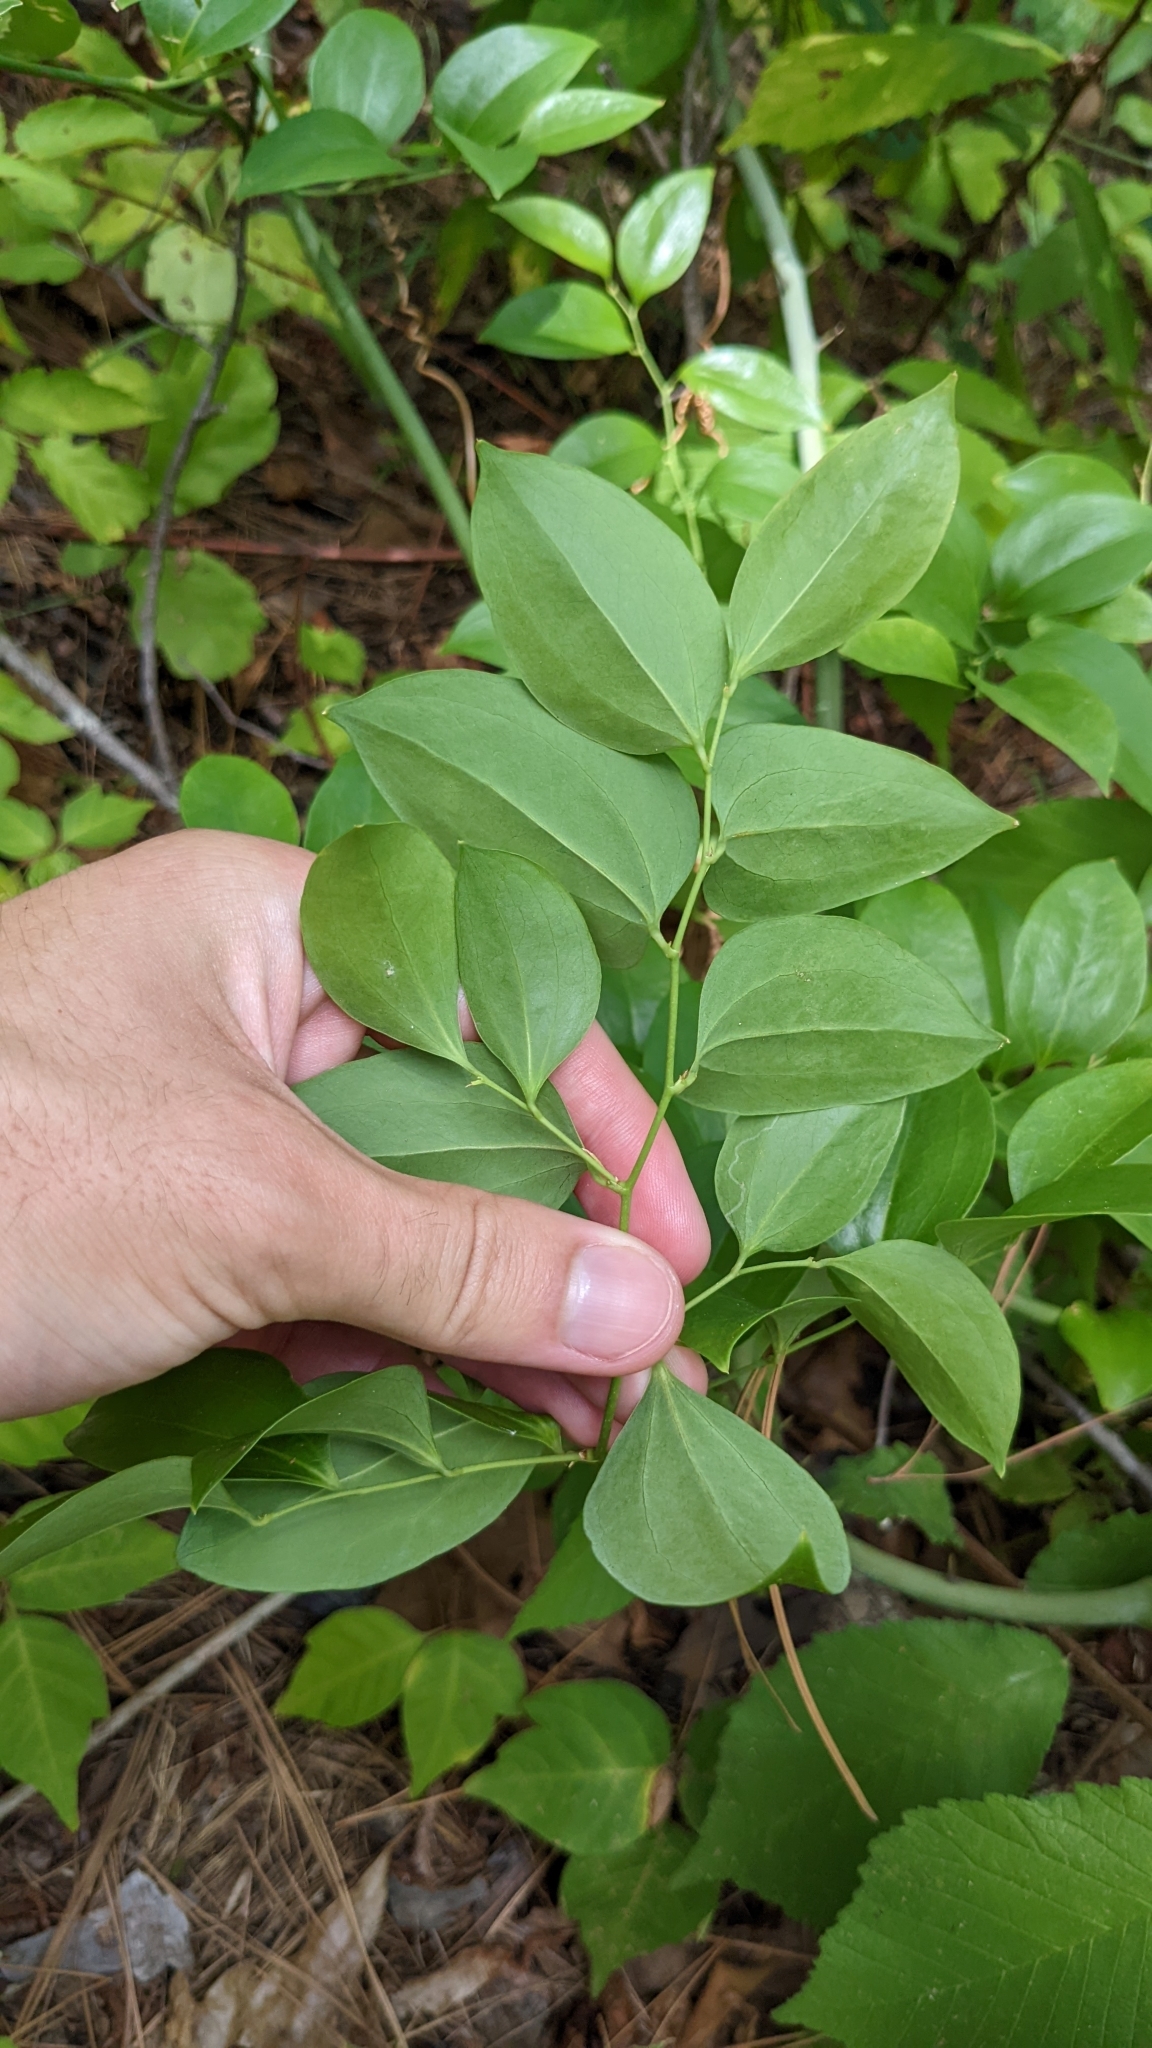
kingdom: Plantae
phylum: Tracheophyta
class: Liliopsida
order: Liliales
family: Smilacaceae
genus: Smilax
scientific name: Smilax maritima
